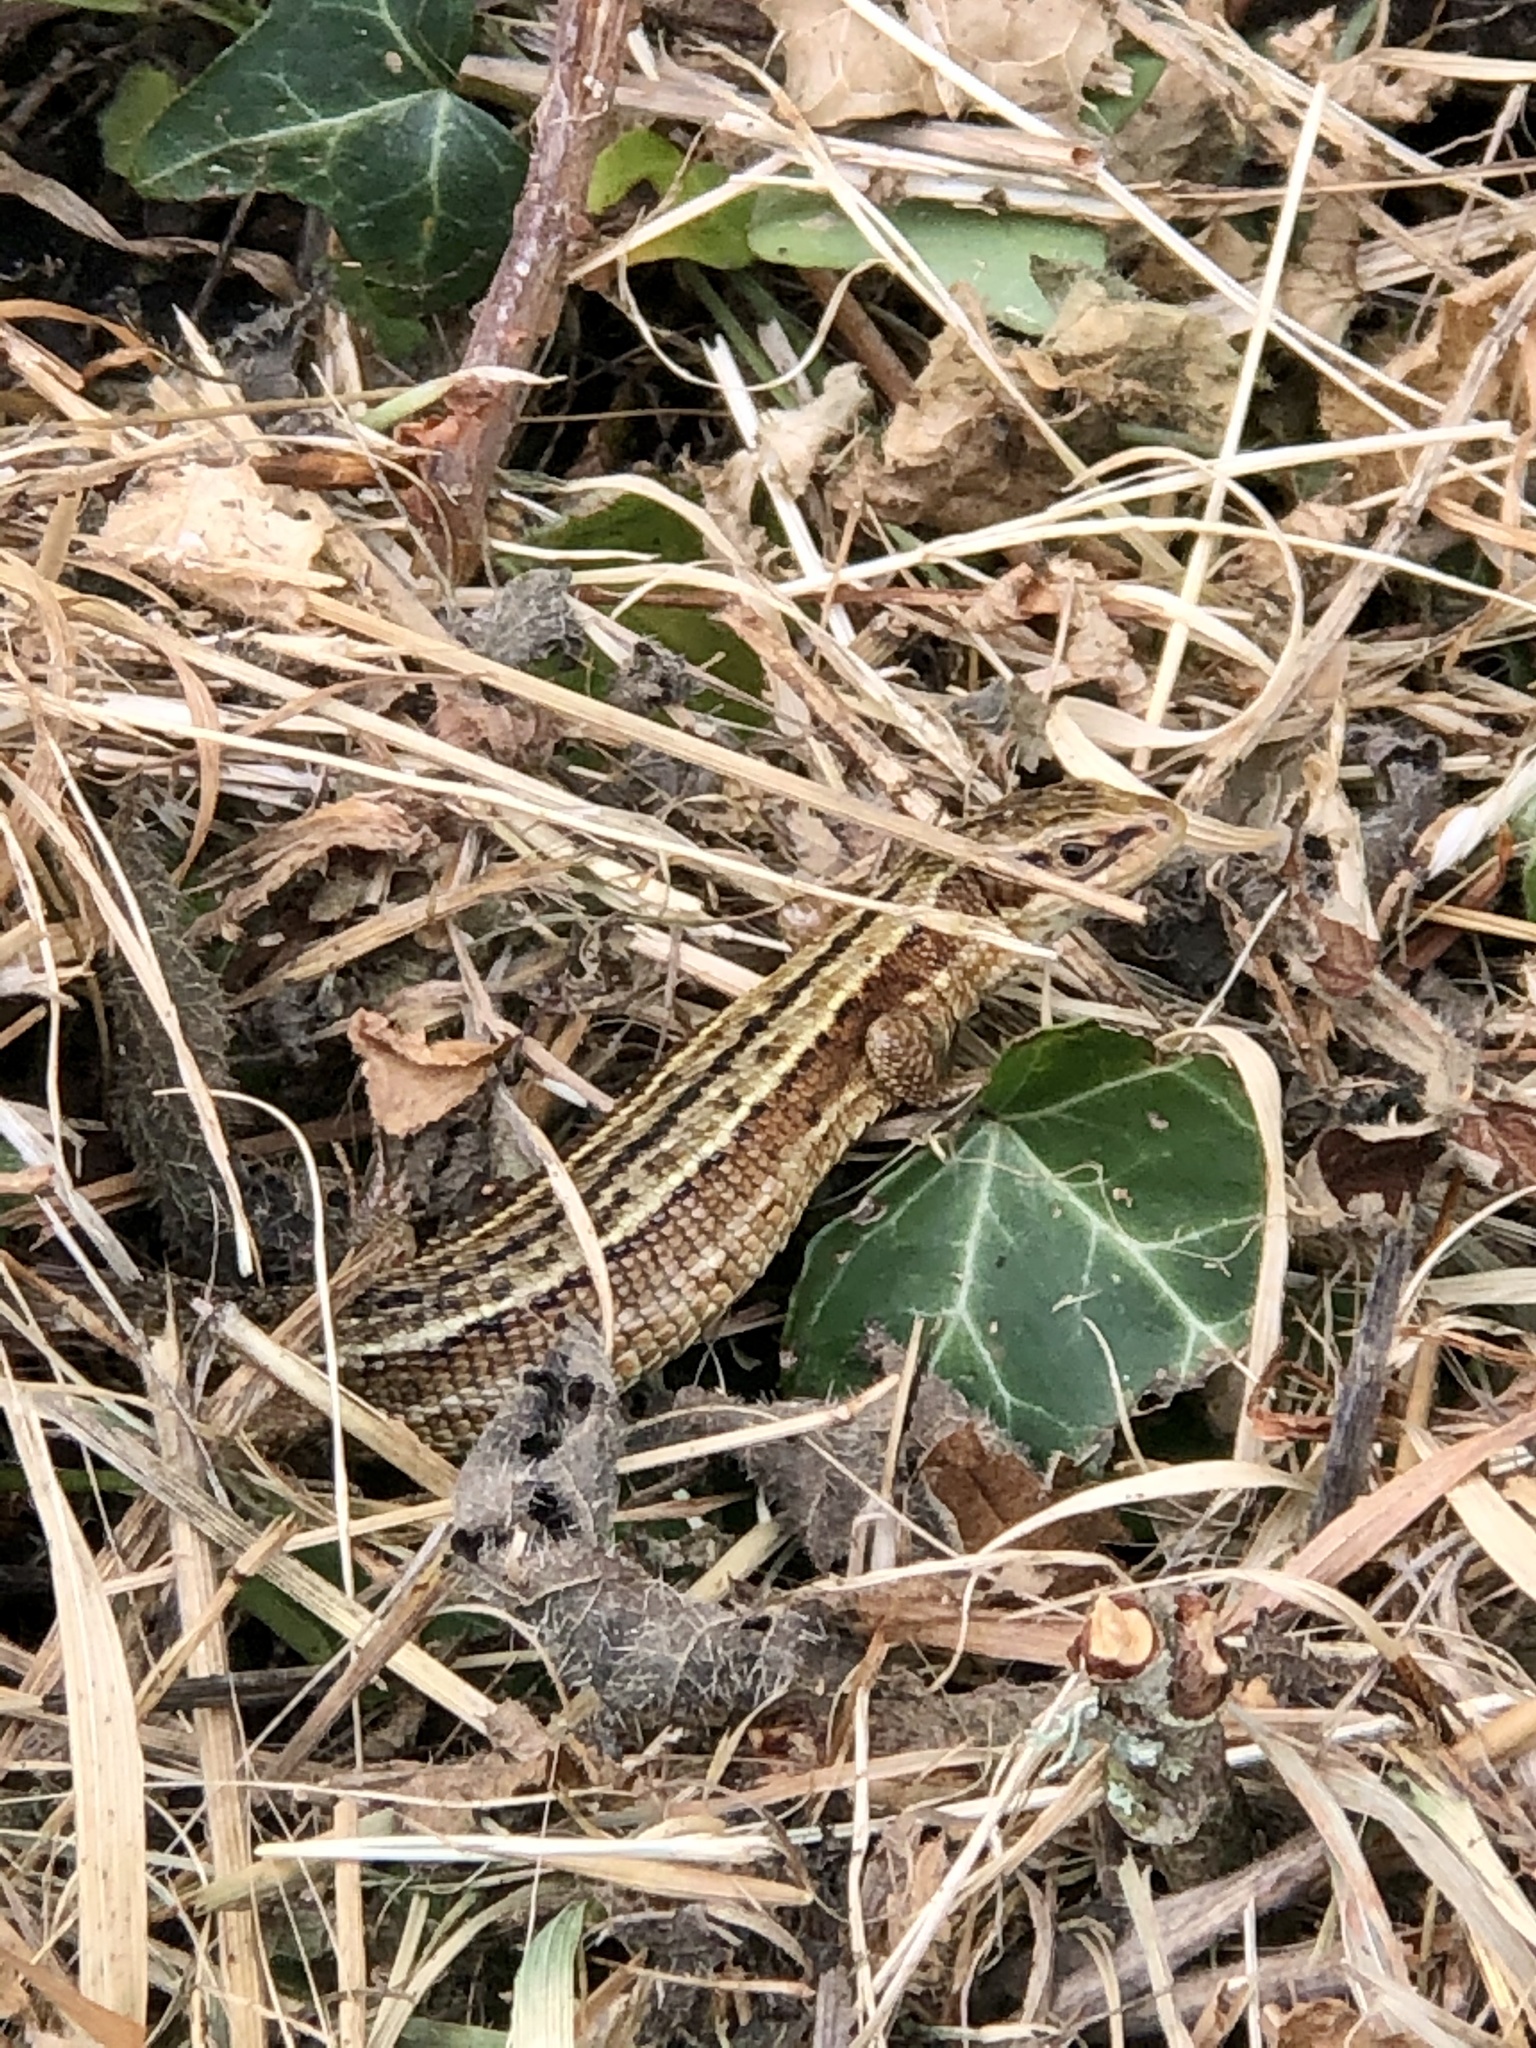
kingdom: Animalia
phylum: Chordata
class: Squamata
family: Lacertidae
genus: Zootoca
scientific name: Zootoca vivipara
